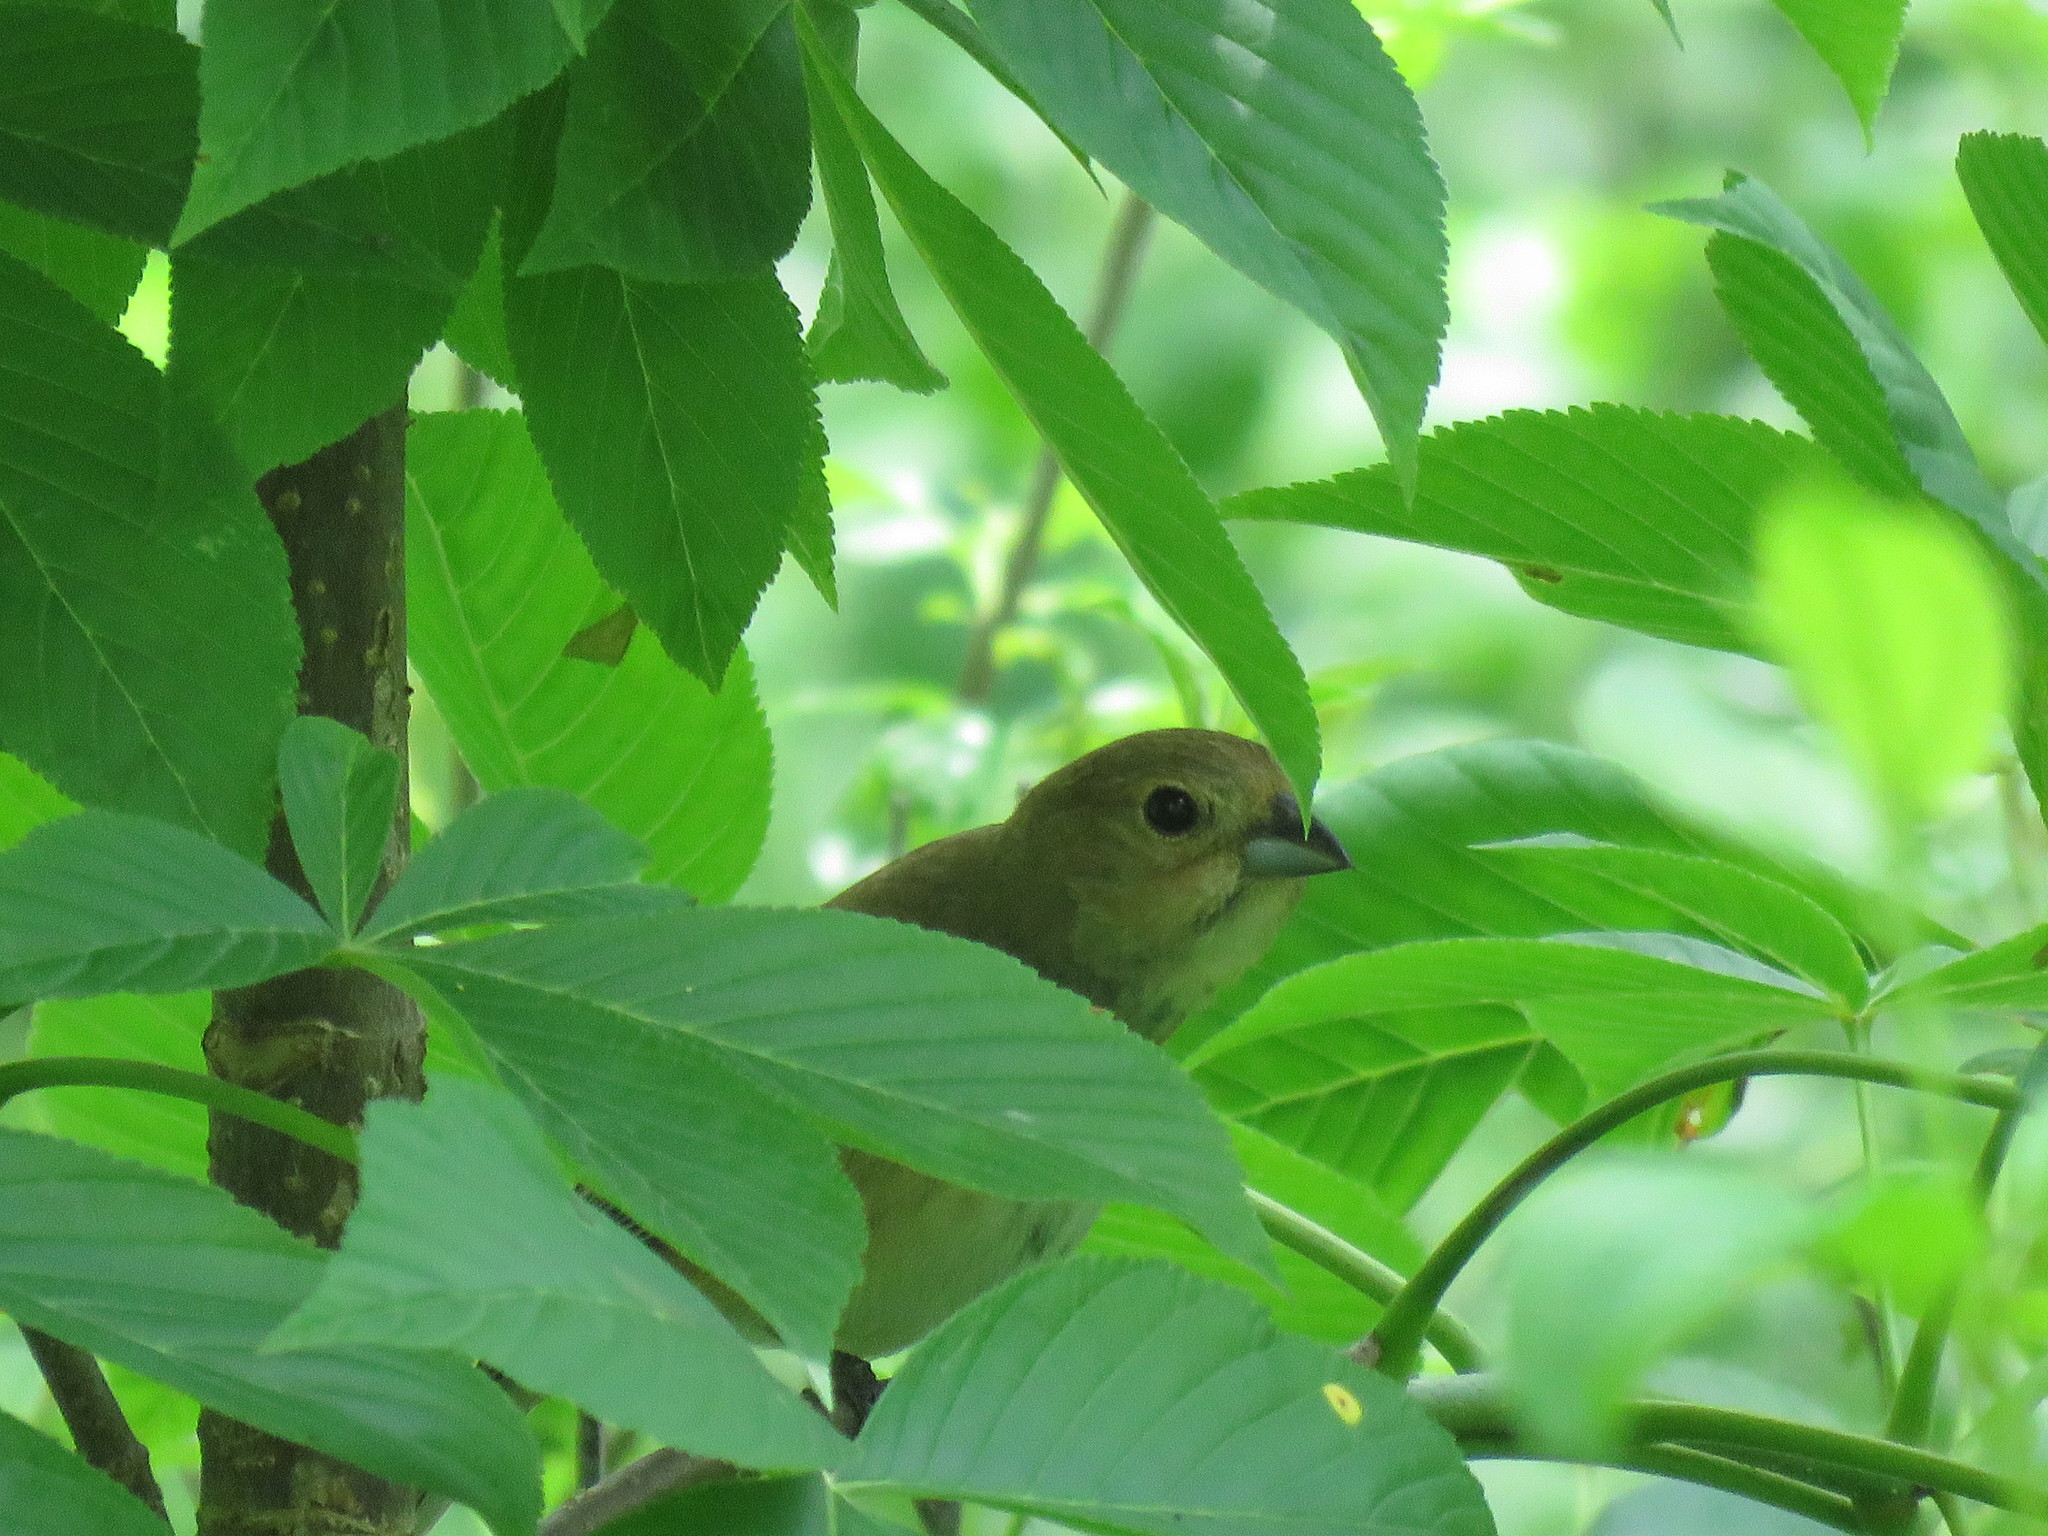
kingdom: Animalia
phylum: Chordata
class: Aves
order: Passeriformes
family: Cardinalidae
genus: Passerina
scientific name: Passerina cyanea
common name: Indigo bunting
